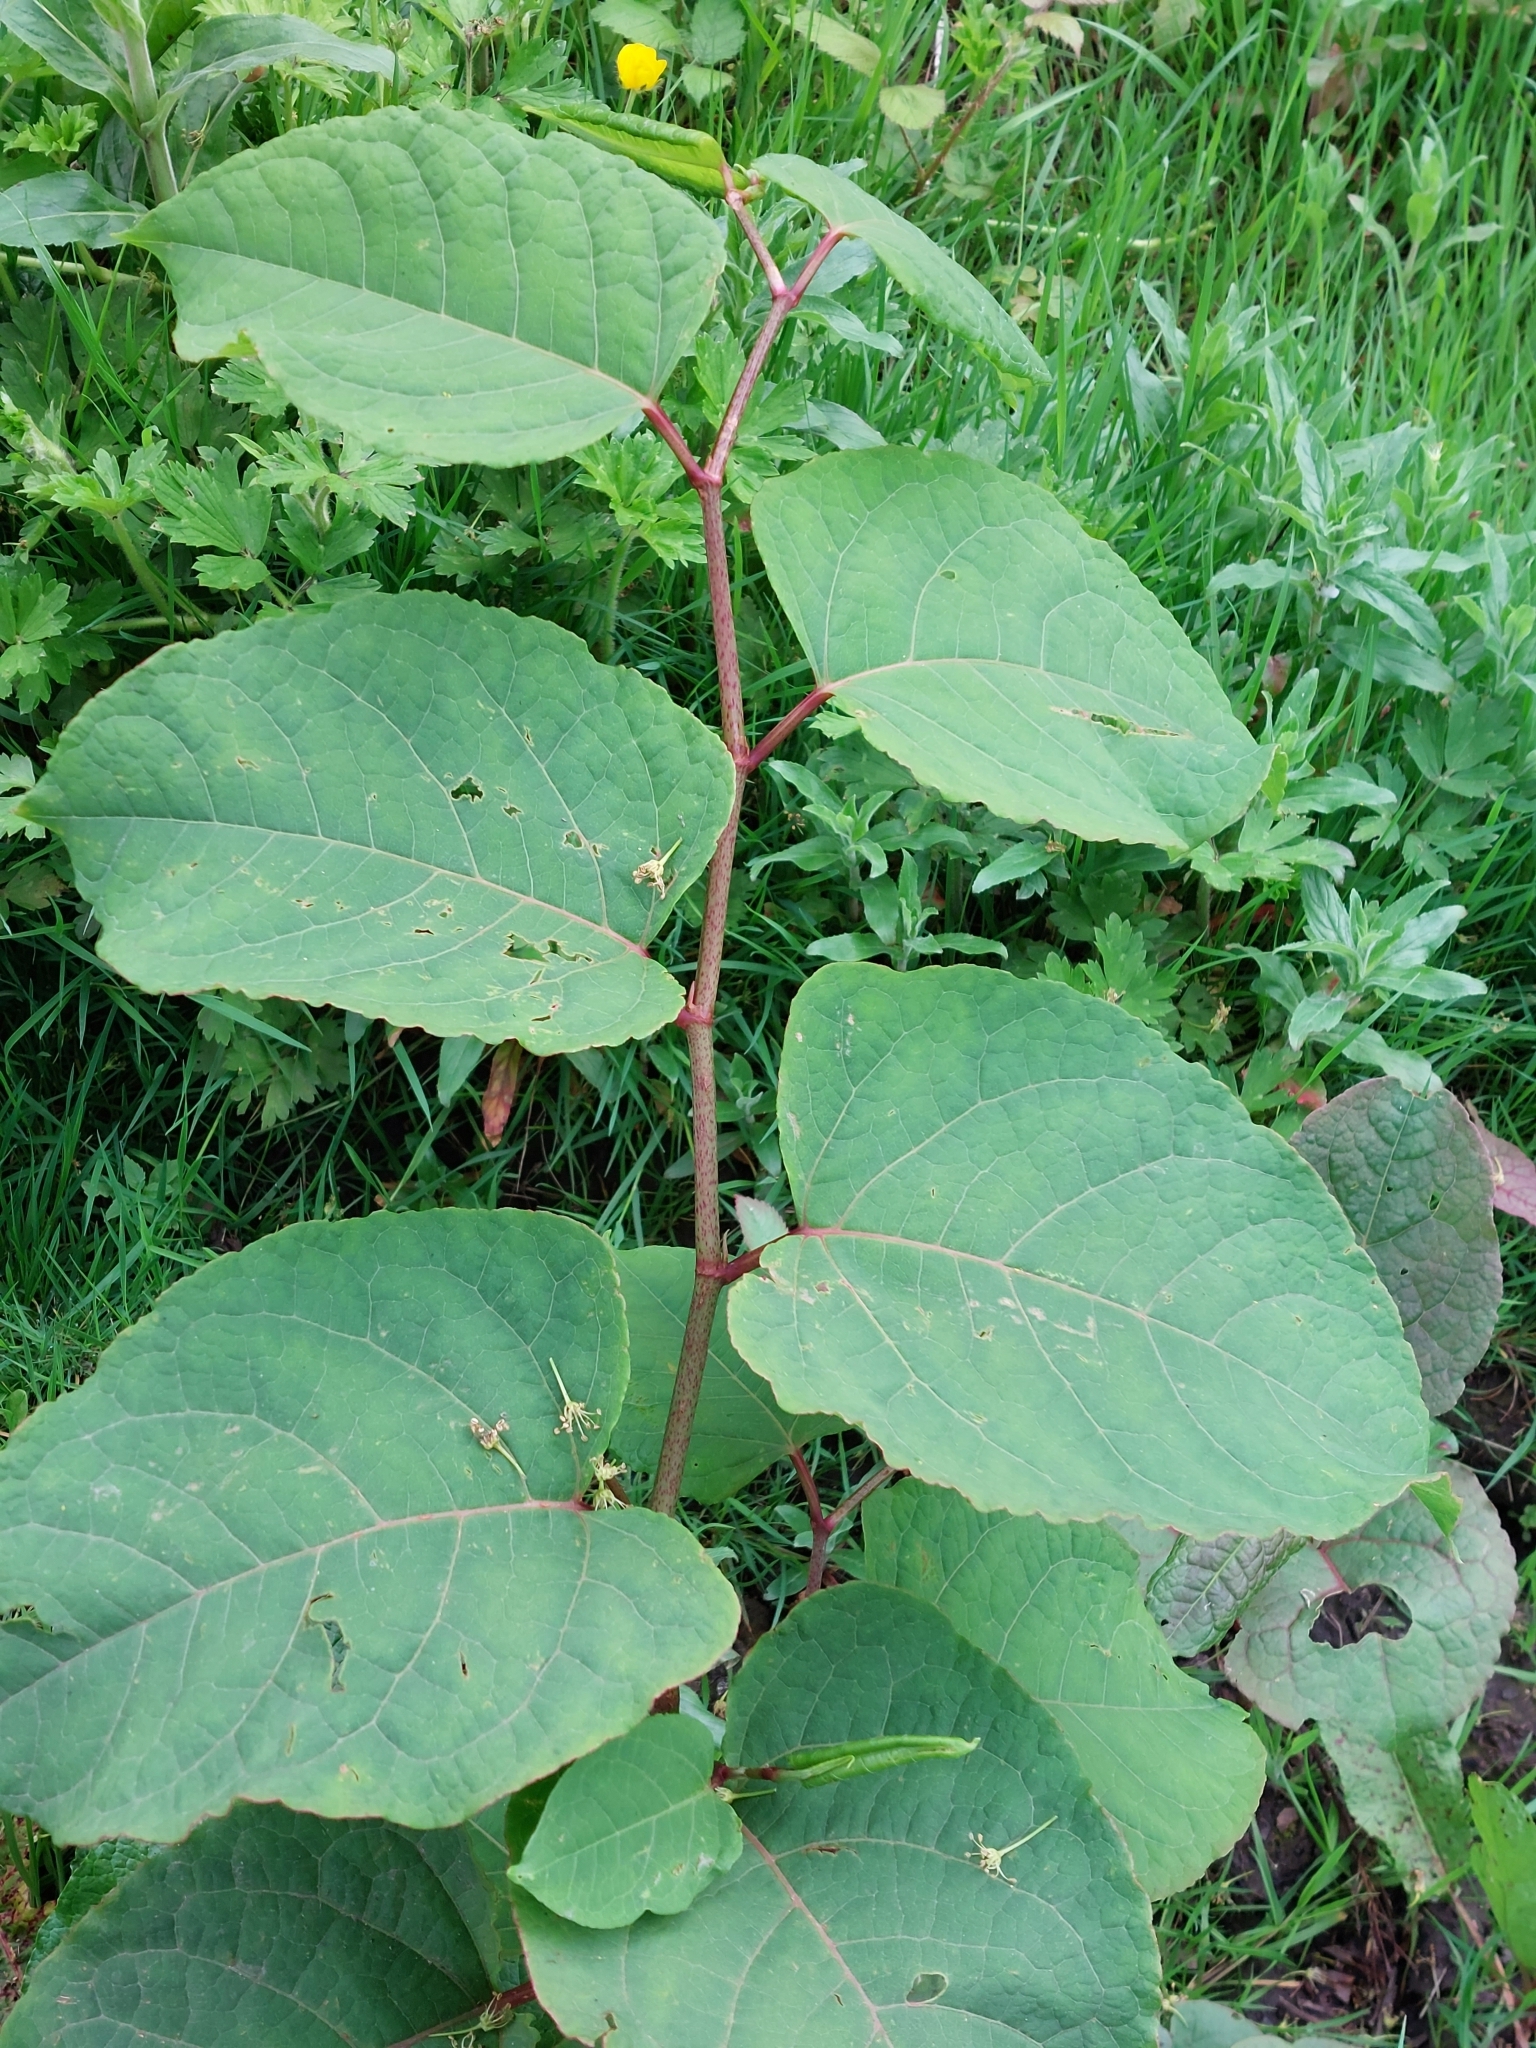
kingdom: Plantae
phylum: Tracheophyta
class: Magnoliopsida
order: Caryophyllales
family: Polygonaceae
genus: Reynoutria
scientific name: Reynoutria japonica
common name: Japanese knotweed
